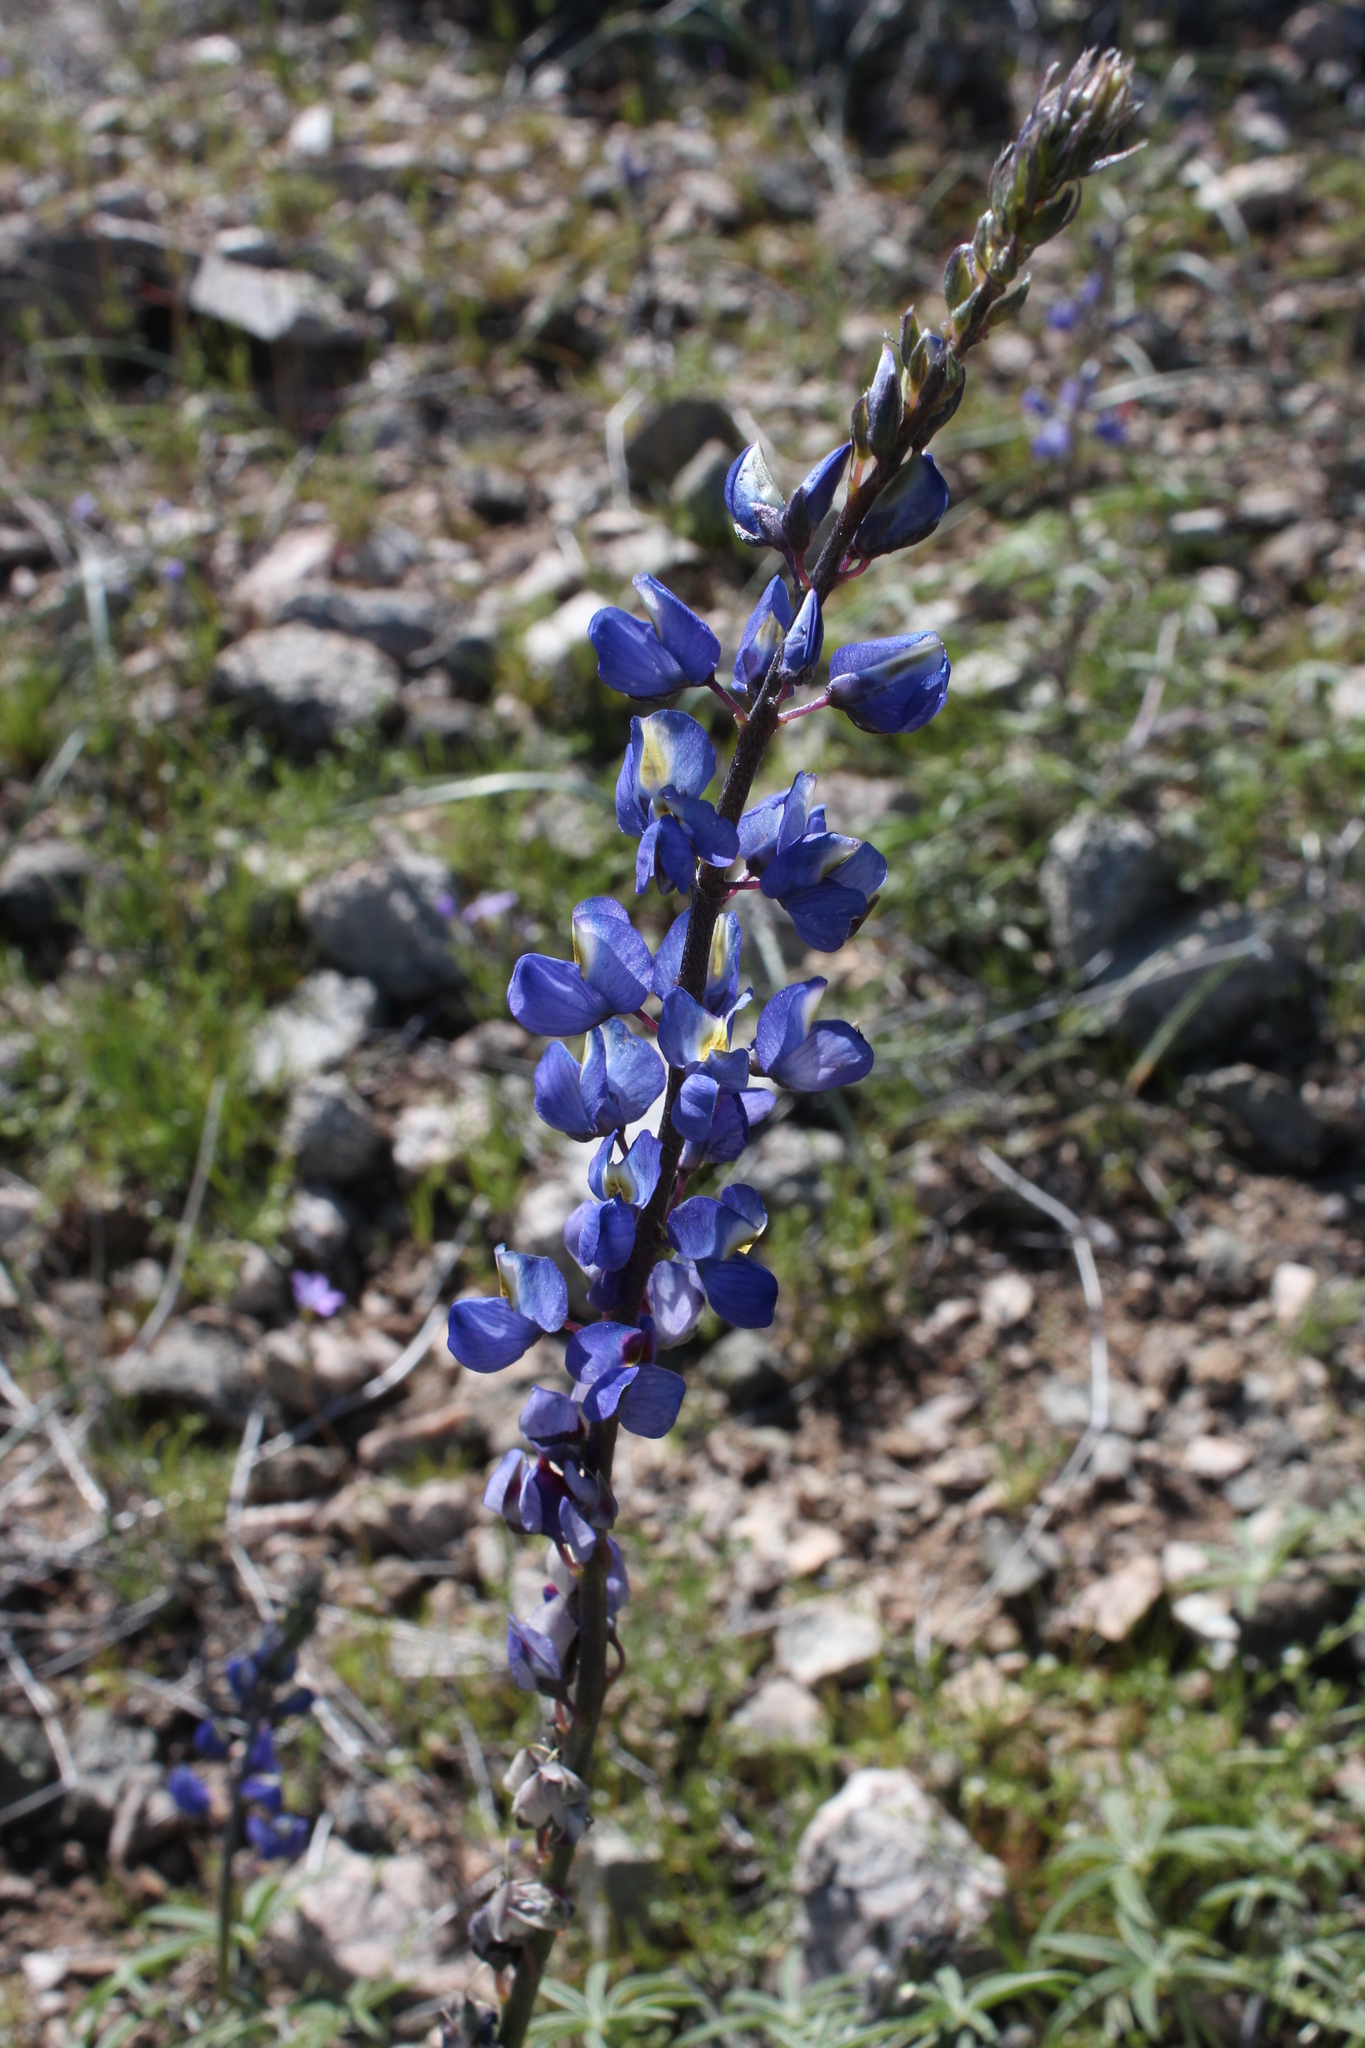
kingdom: Plantae
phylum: Tracheophyta
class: Magnoliopsida
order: Fabales
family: Fabaceae
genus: Lupinus
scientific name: Lupinus sparsiflorus
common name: Coulter's lupine
